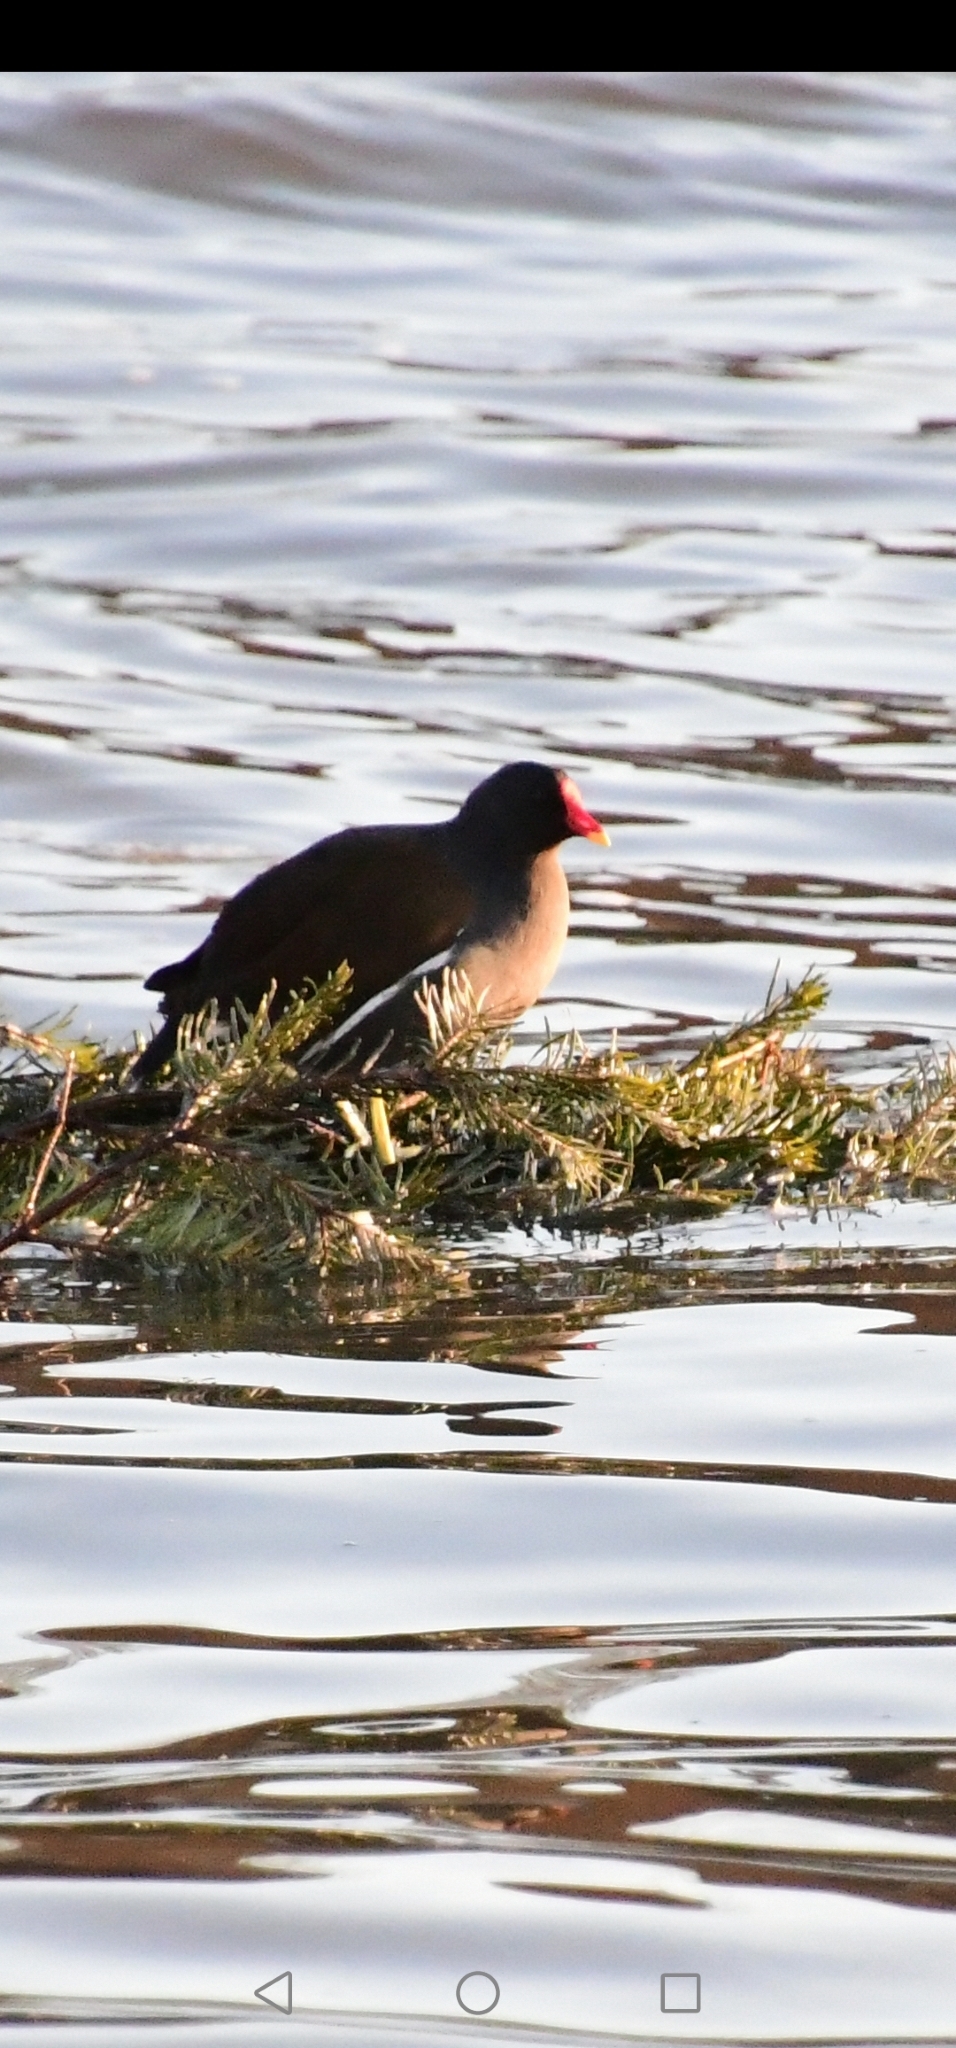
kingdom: Animalia
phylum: Chordata
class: Aves
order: Gruiformes
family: Rallidae
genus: Gallinula
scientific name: Gallinula chloropus
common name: Common moorhen
